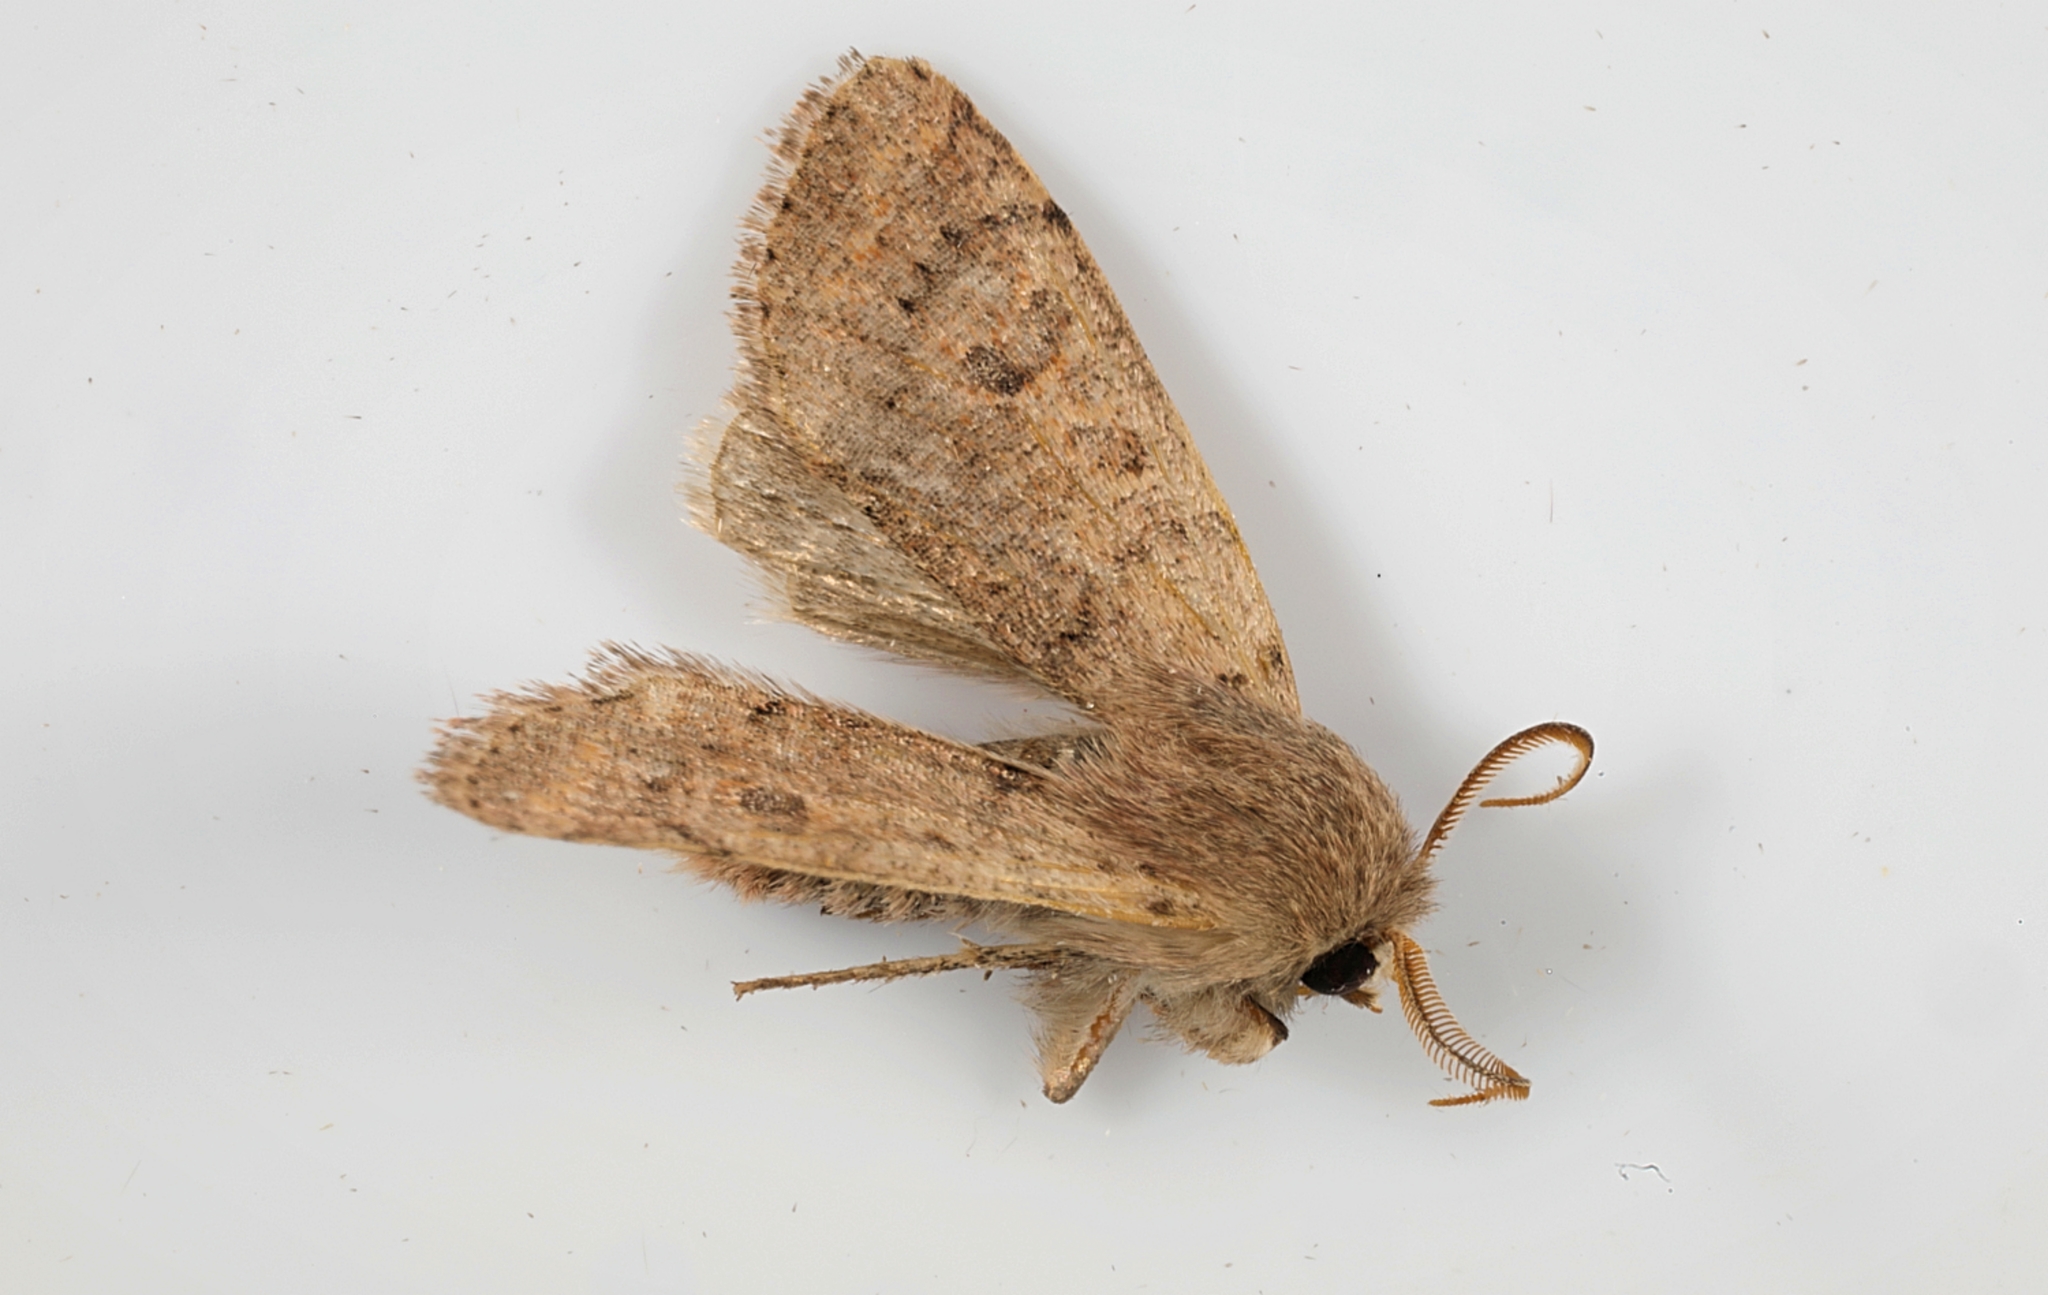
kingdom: Animalia
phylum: Arthropoda
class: Insecta
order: Lepidoptera
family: Noctuidae
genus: Orthosia
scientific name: Orthosia cruda
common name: Small quaker
